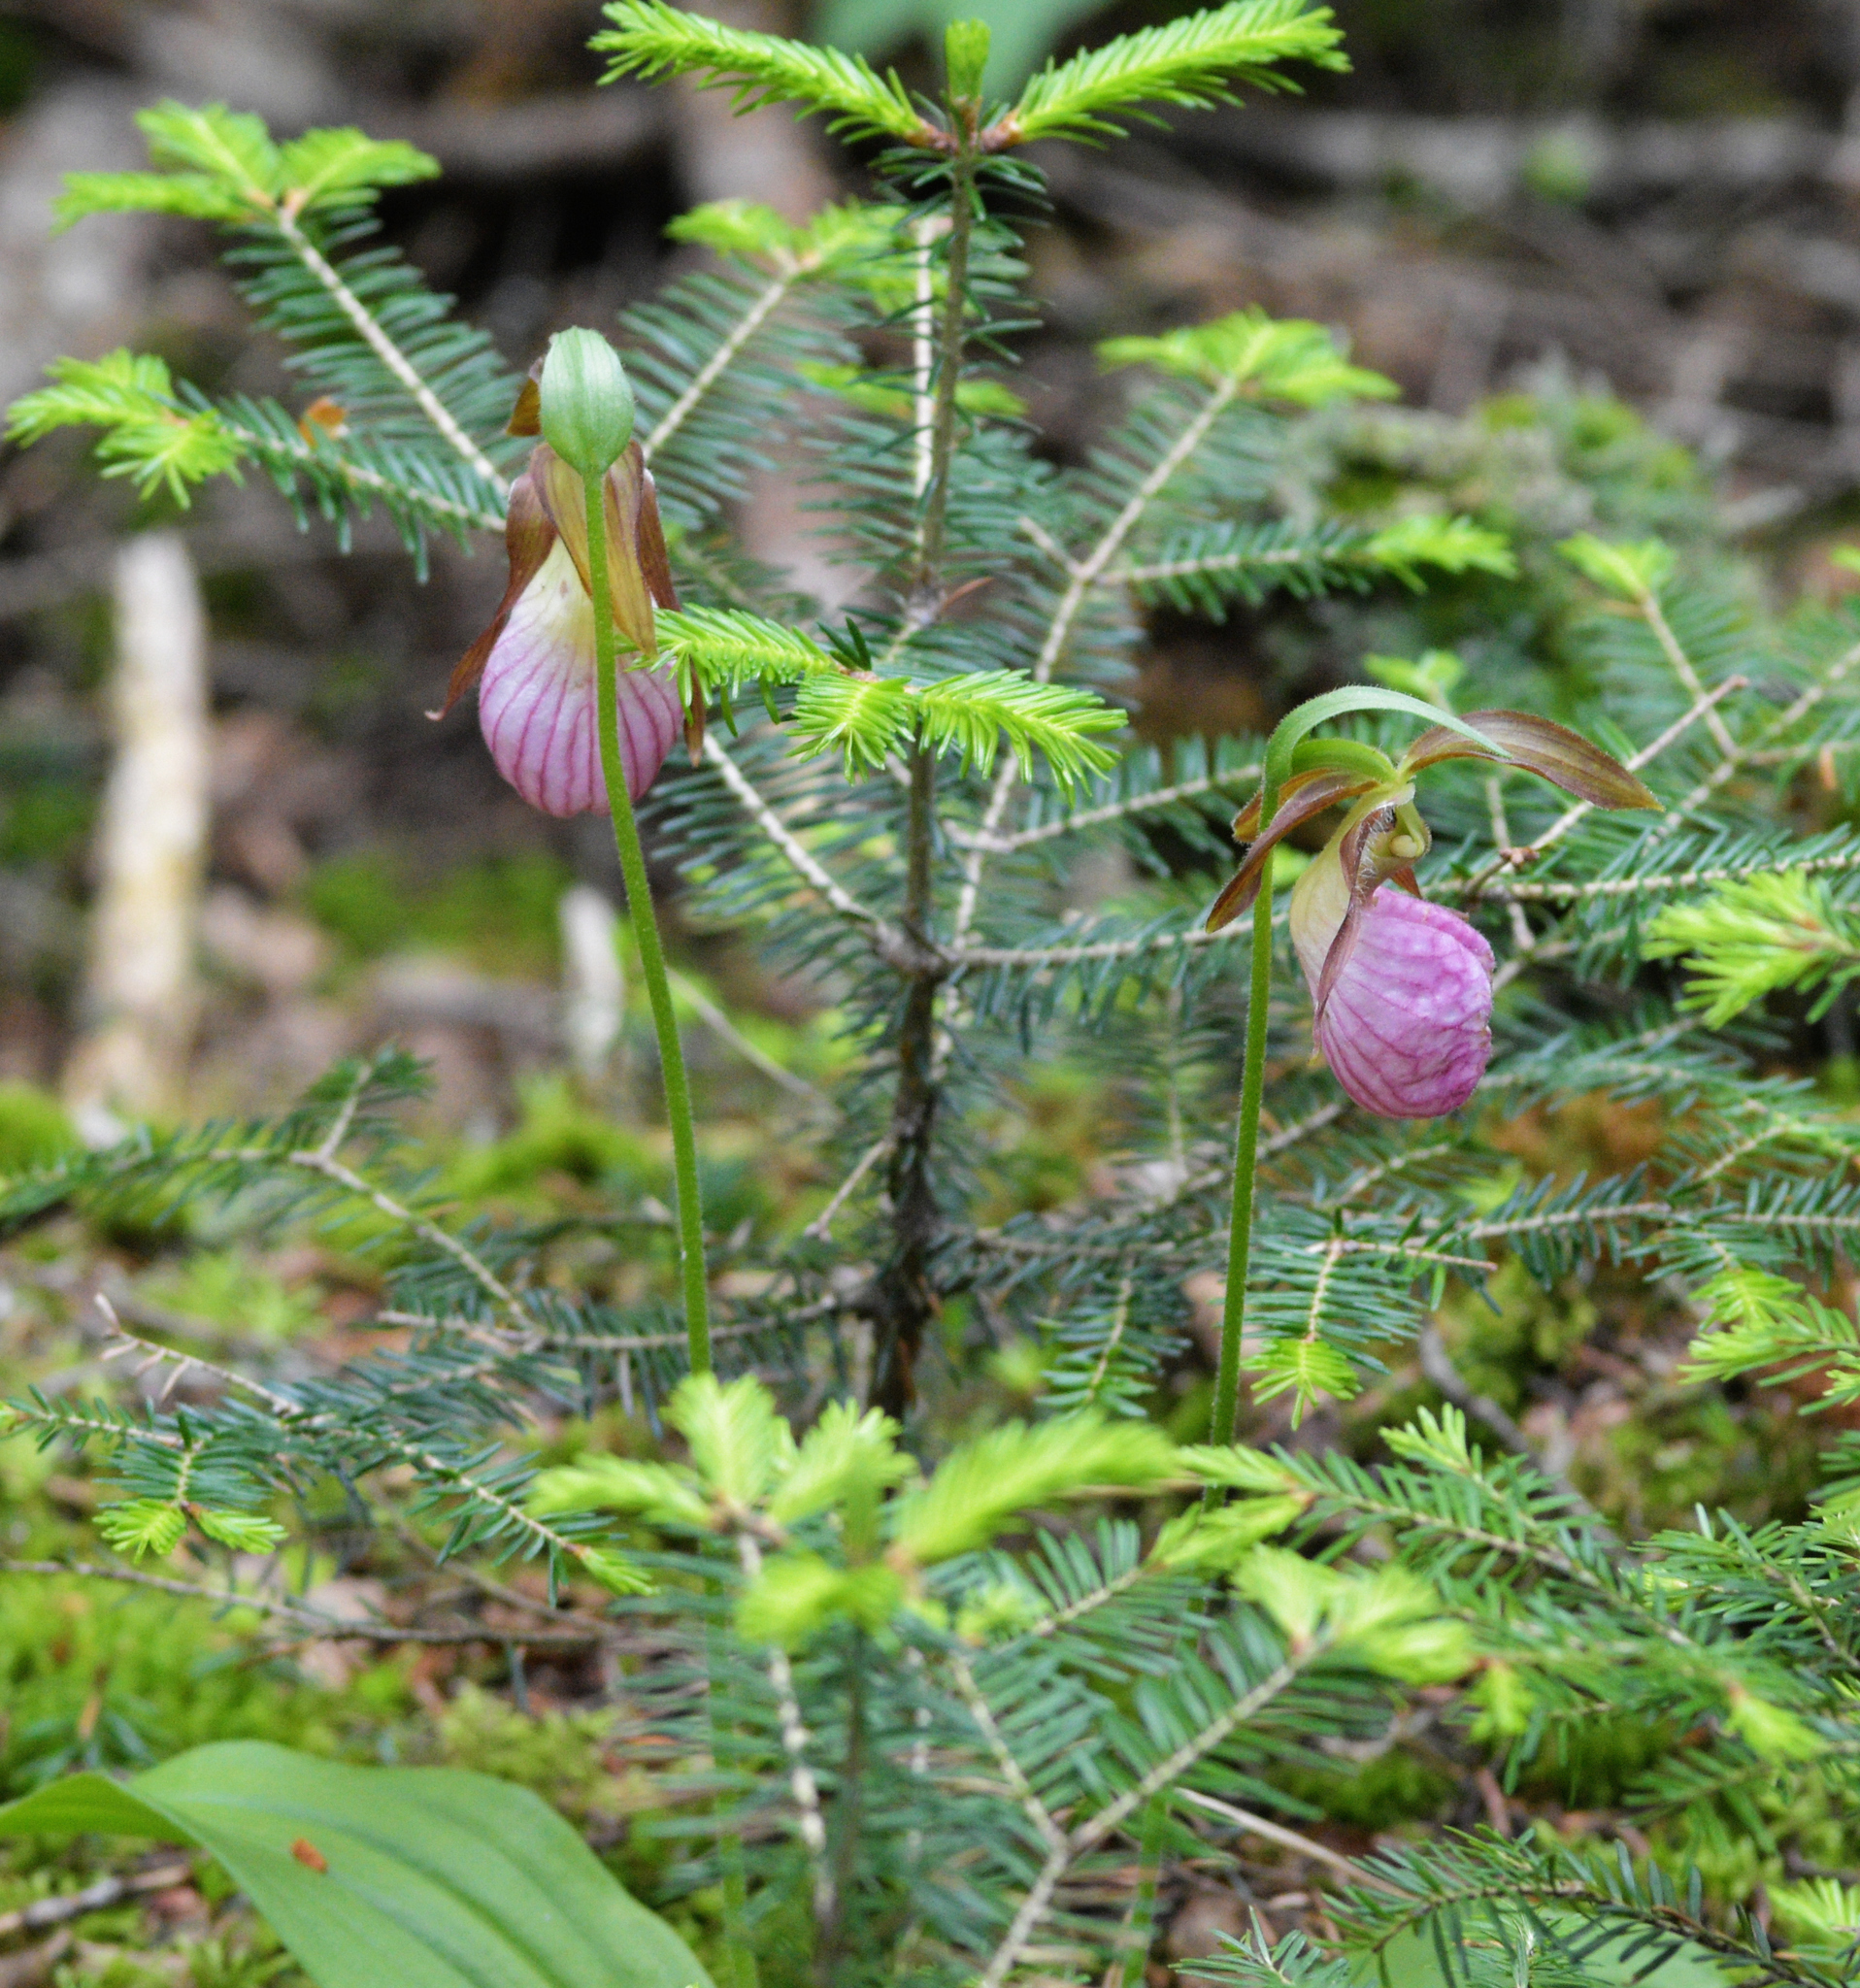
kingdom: Plantae
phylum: Tracheophyta
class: Liliopsida
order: Asparagales
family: Orchidaceae
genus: Cypripedium
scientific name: Cypripedium acaule
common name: Pink lady's-slipper
